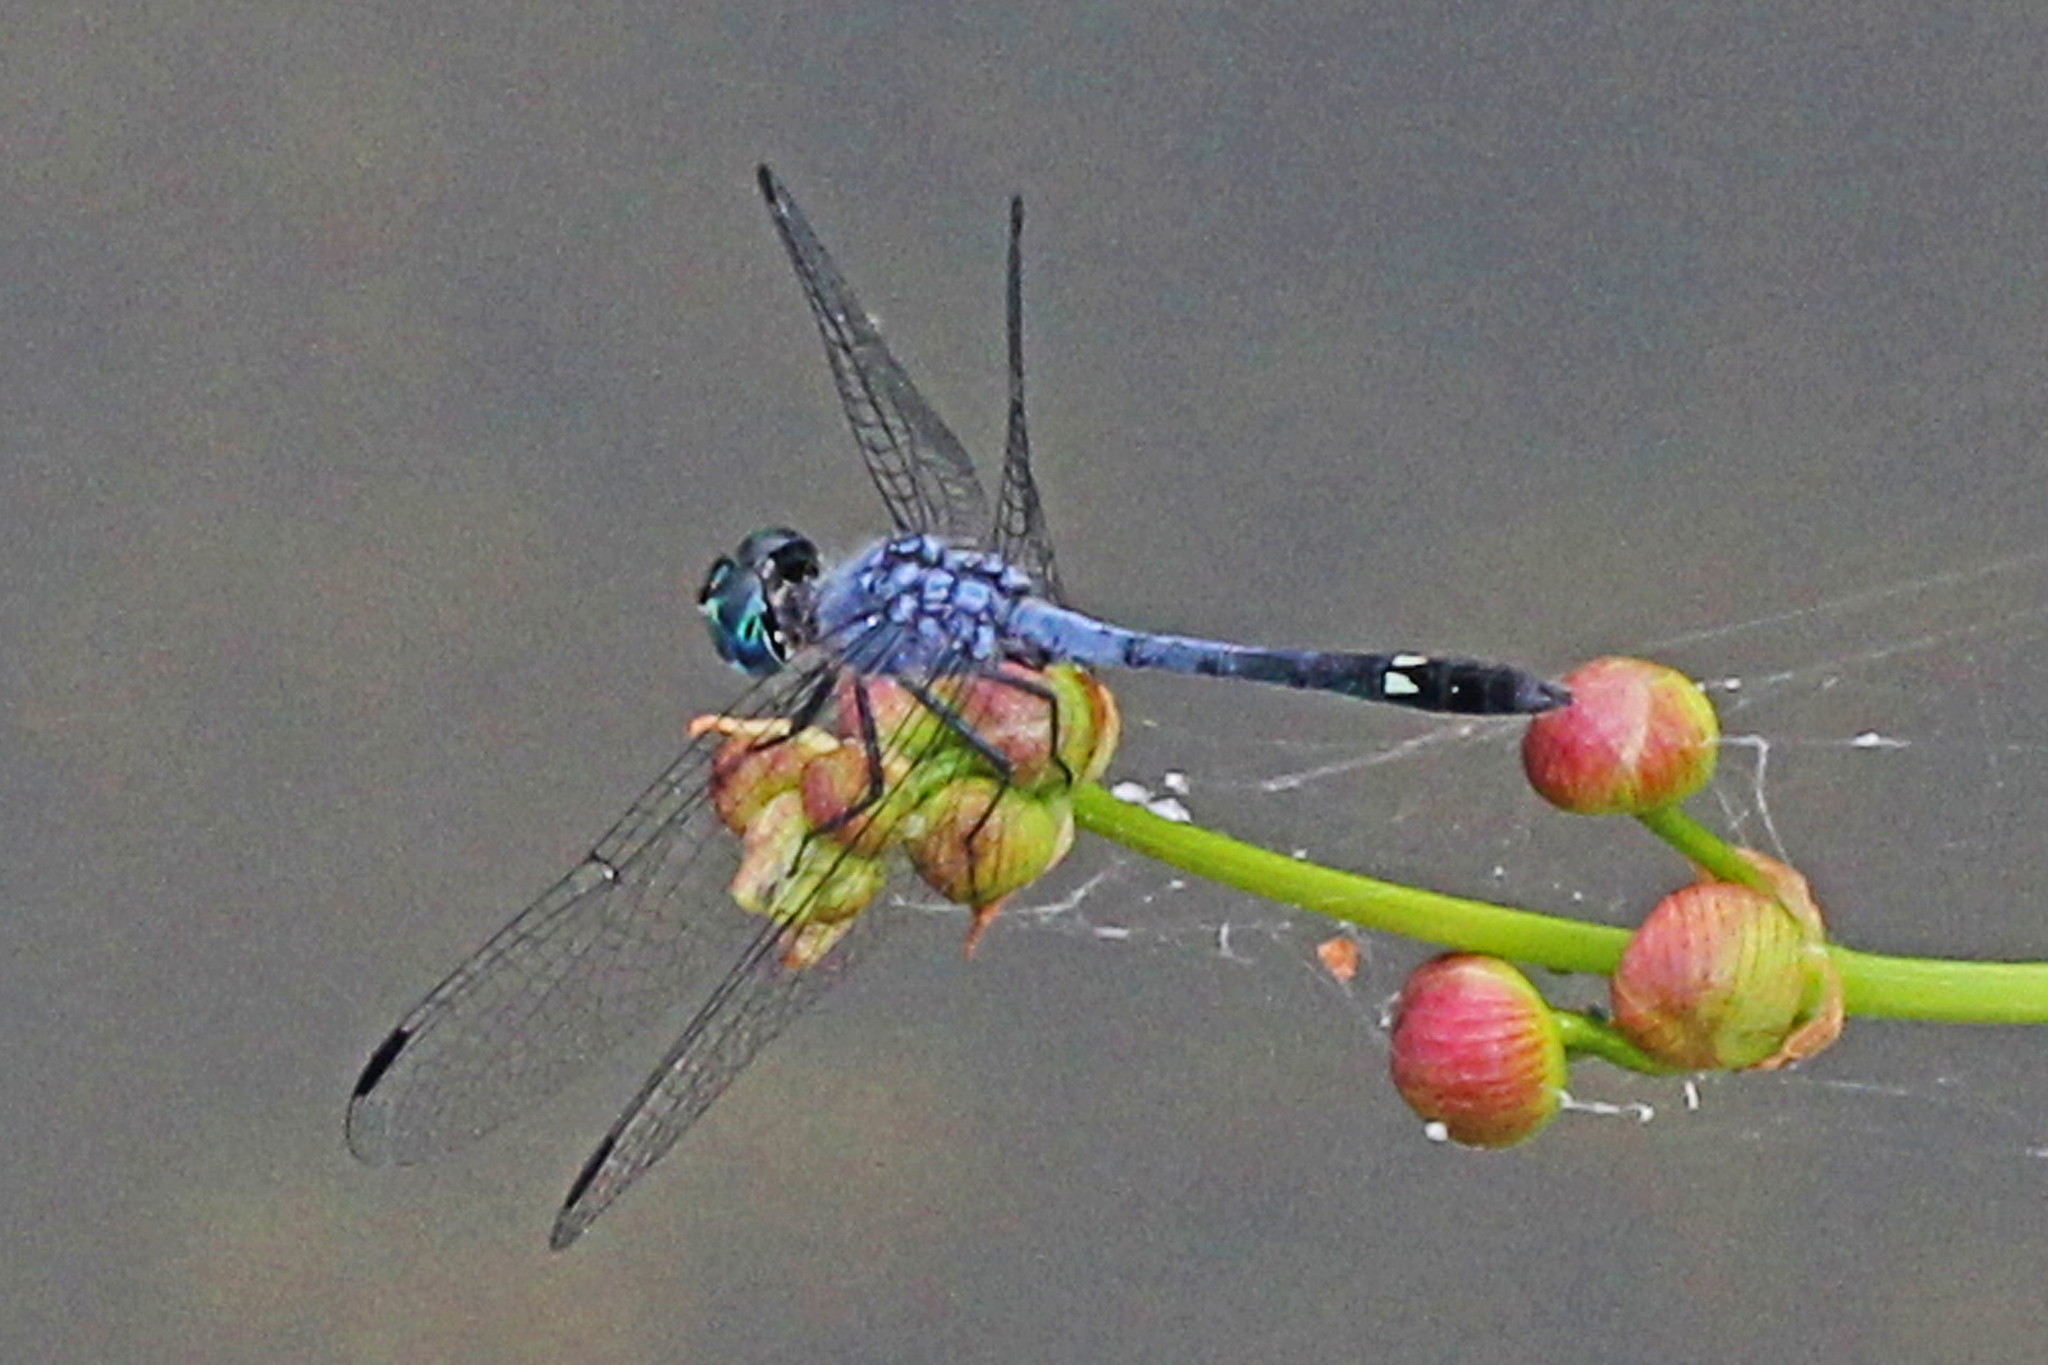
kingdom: Animalia
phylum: Arthropoda
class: Insecta
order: Odonata
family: Libellulidae
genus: Micrathyria
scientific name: Micrathyria aequalis
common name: Spot-tailed dasher
